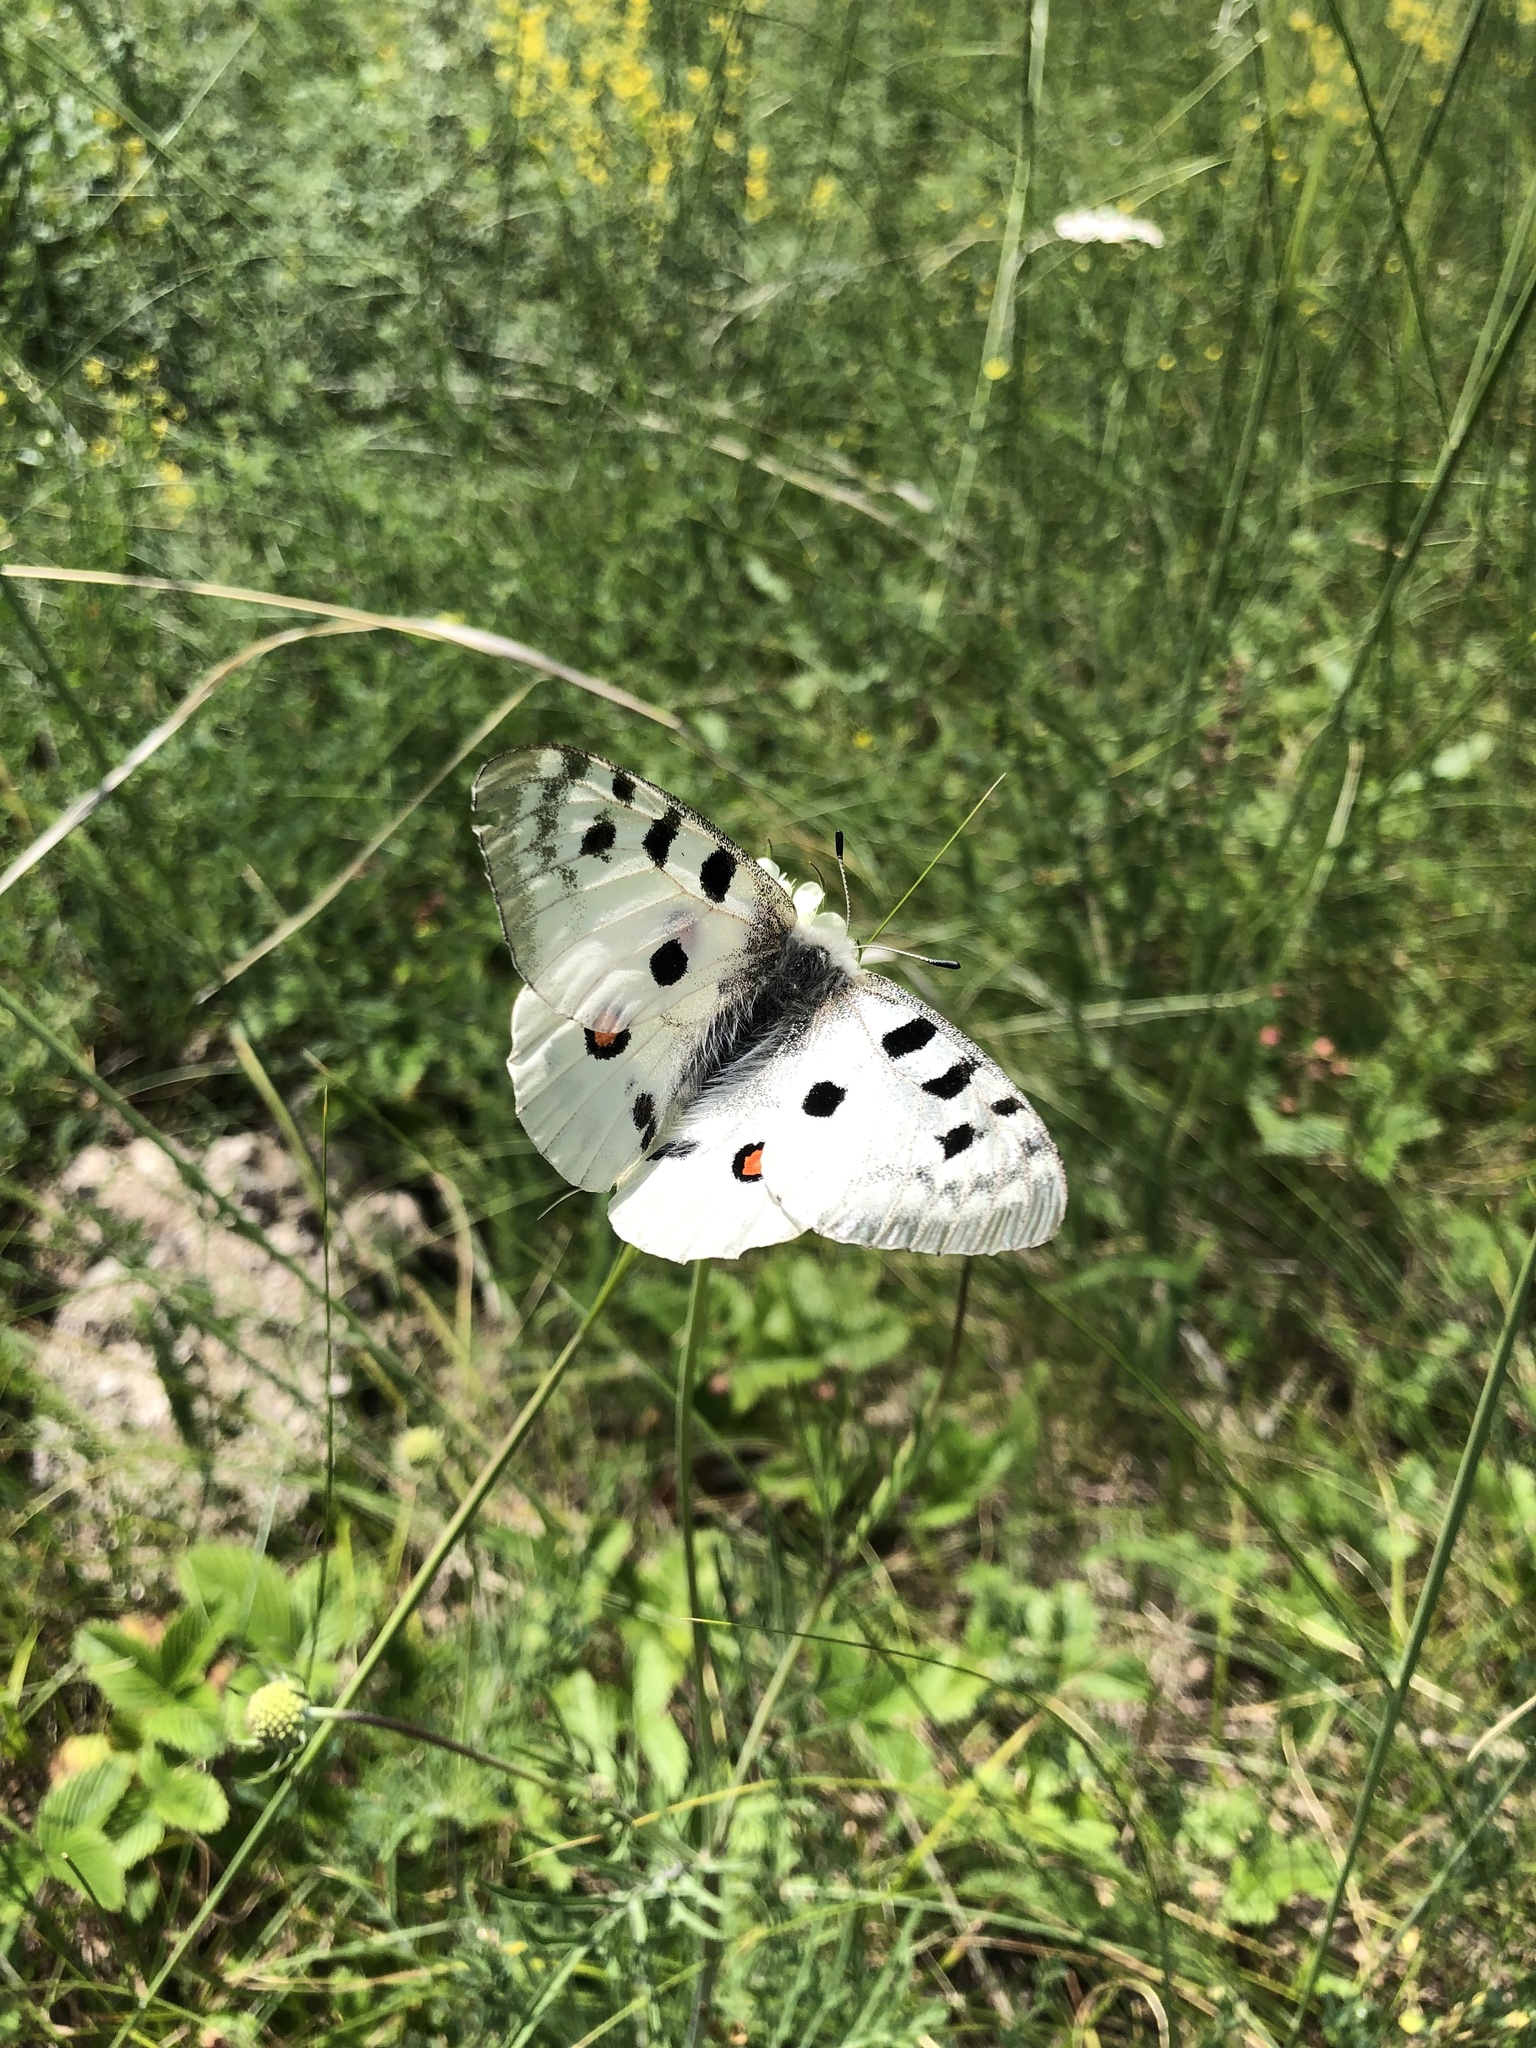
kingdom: Animalia
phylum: Arthropoda
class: Insecta
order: Lepidoptera
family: Papilionidae
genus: Parnassius
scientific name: Parnassius apollo
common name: Apollo
